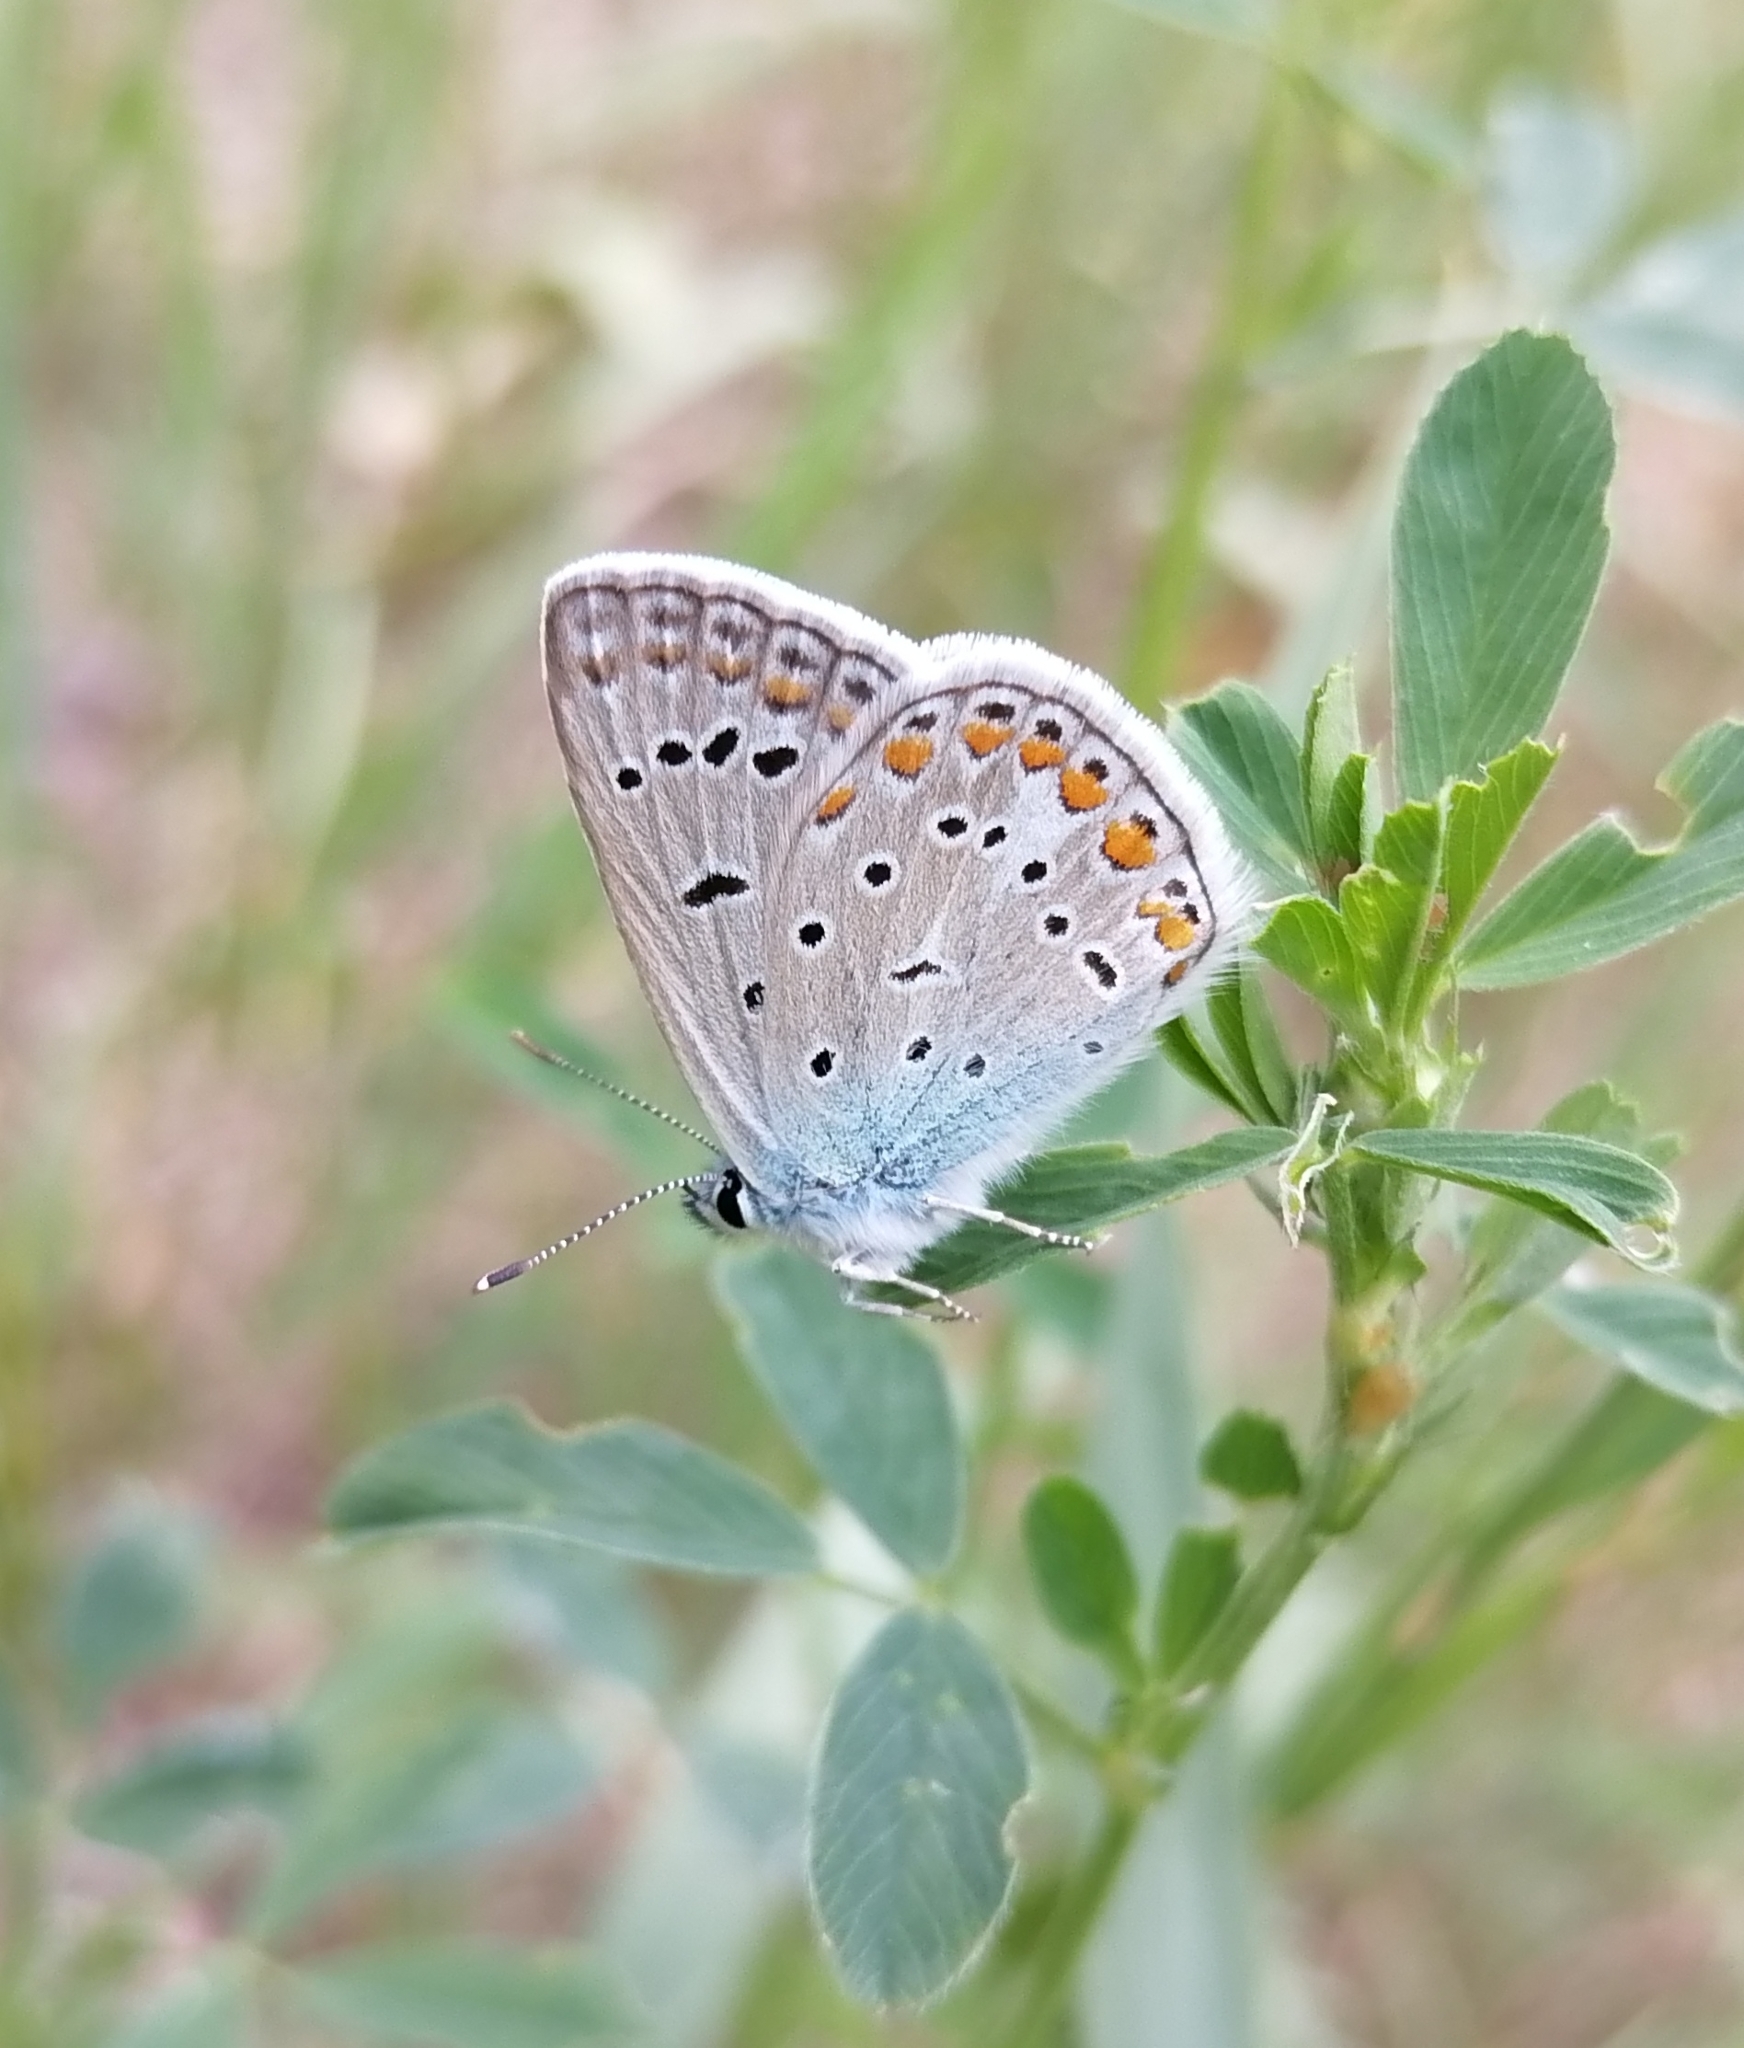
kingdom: Animalia
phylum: Arthropoda
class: Insecta
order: Lepidoptera
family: Lycaenidae
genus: Polyommatus
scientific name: Polyommatus icarus
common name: Common blue
